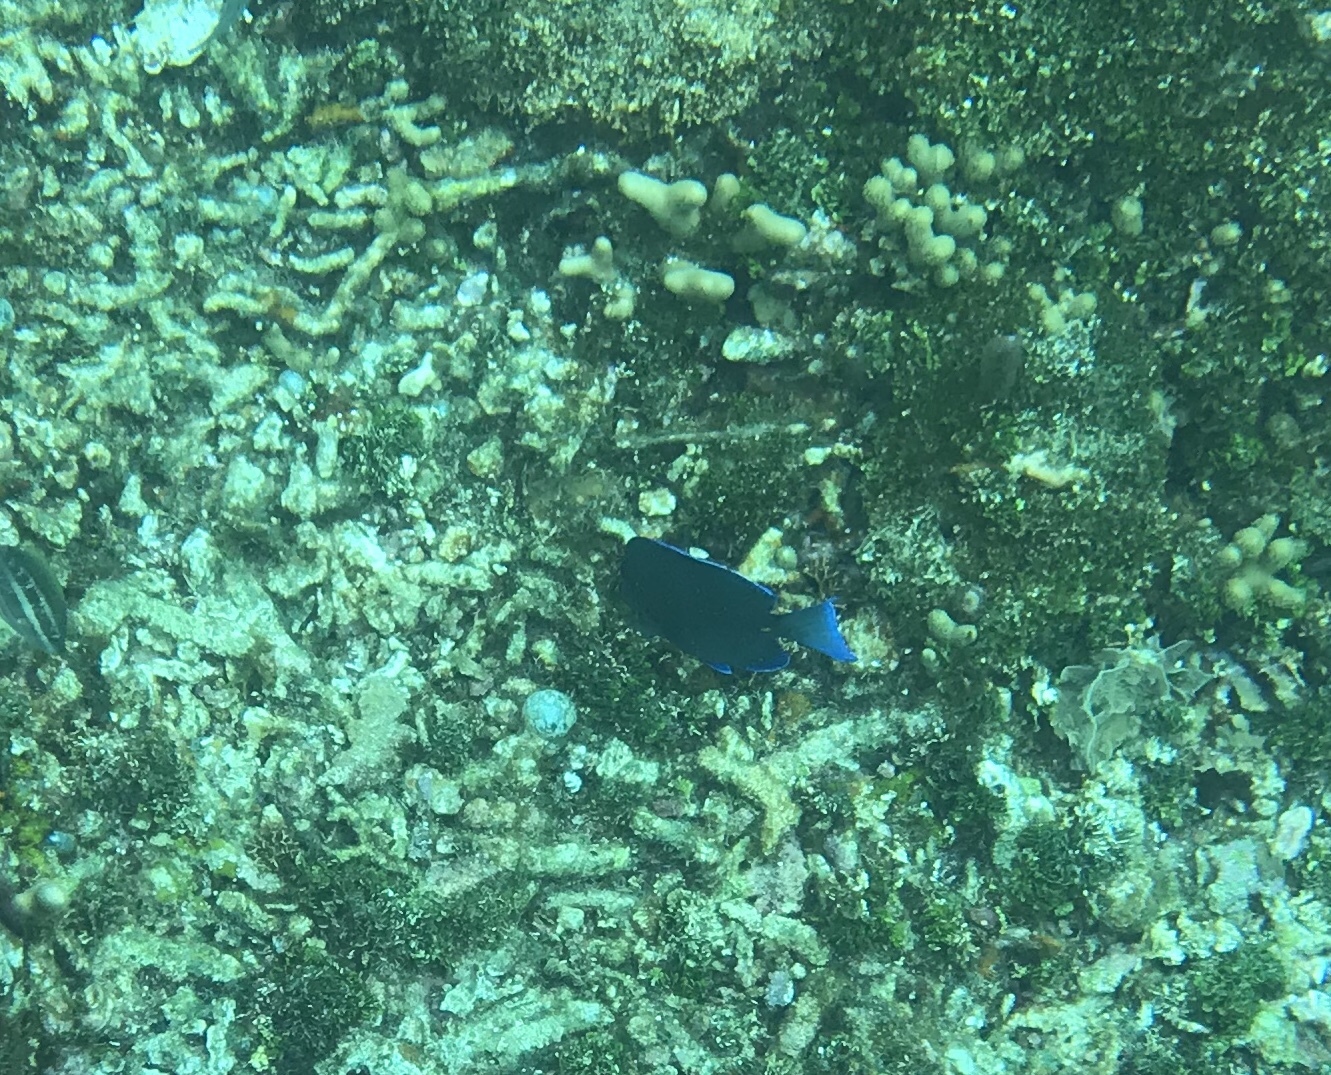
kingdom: Animalia
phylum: Chordata
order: Perciformes
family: Acanthuridae
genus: Acanthurus
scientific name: Acanthurus coeruleus
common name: Blue tang
